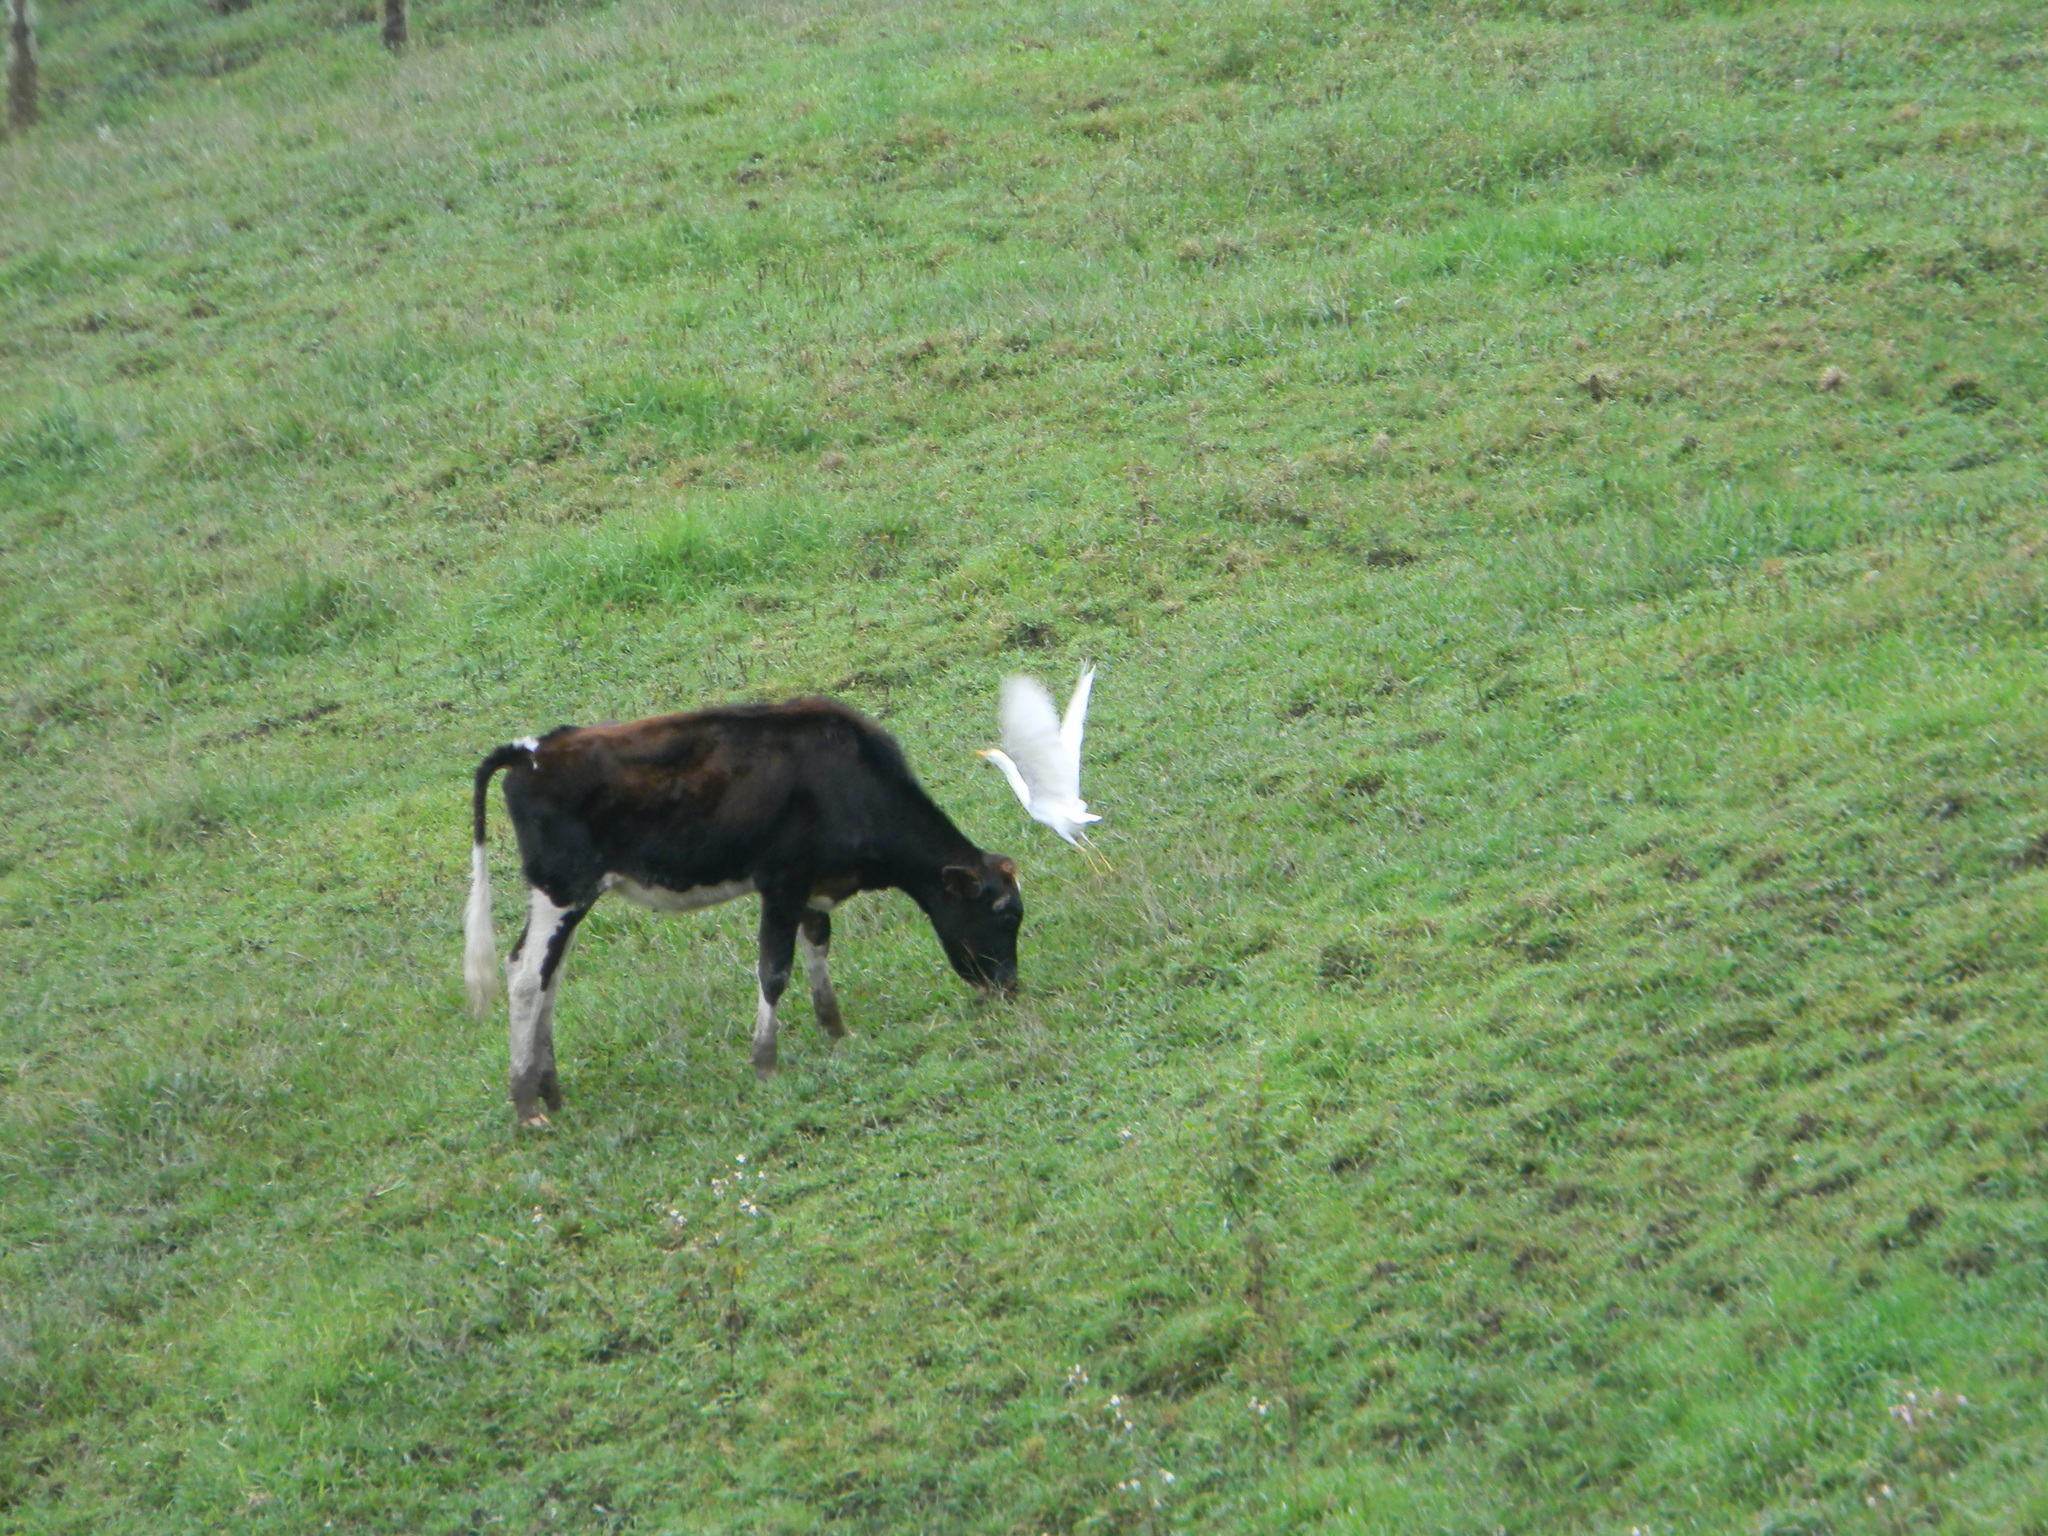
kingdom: Animalia
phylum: Chordata
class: Aves
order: Pelecaniformes
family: Ardeidae
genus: Bubulcus
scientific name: Bubulcus ibis
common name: Cattle egret
